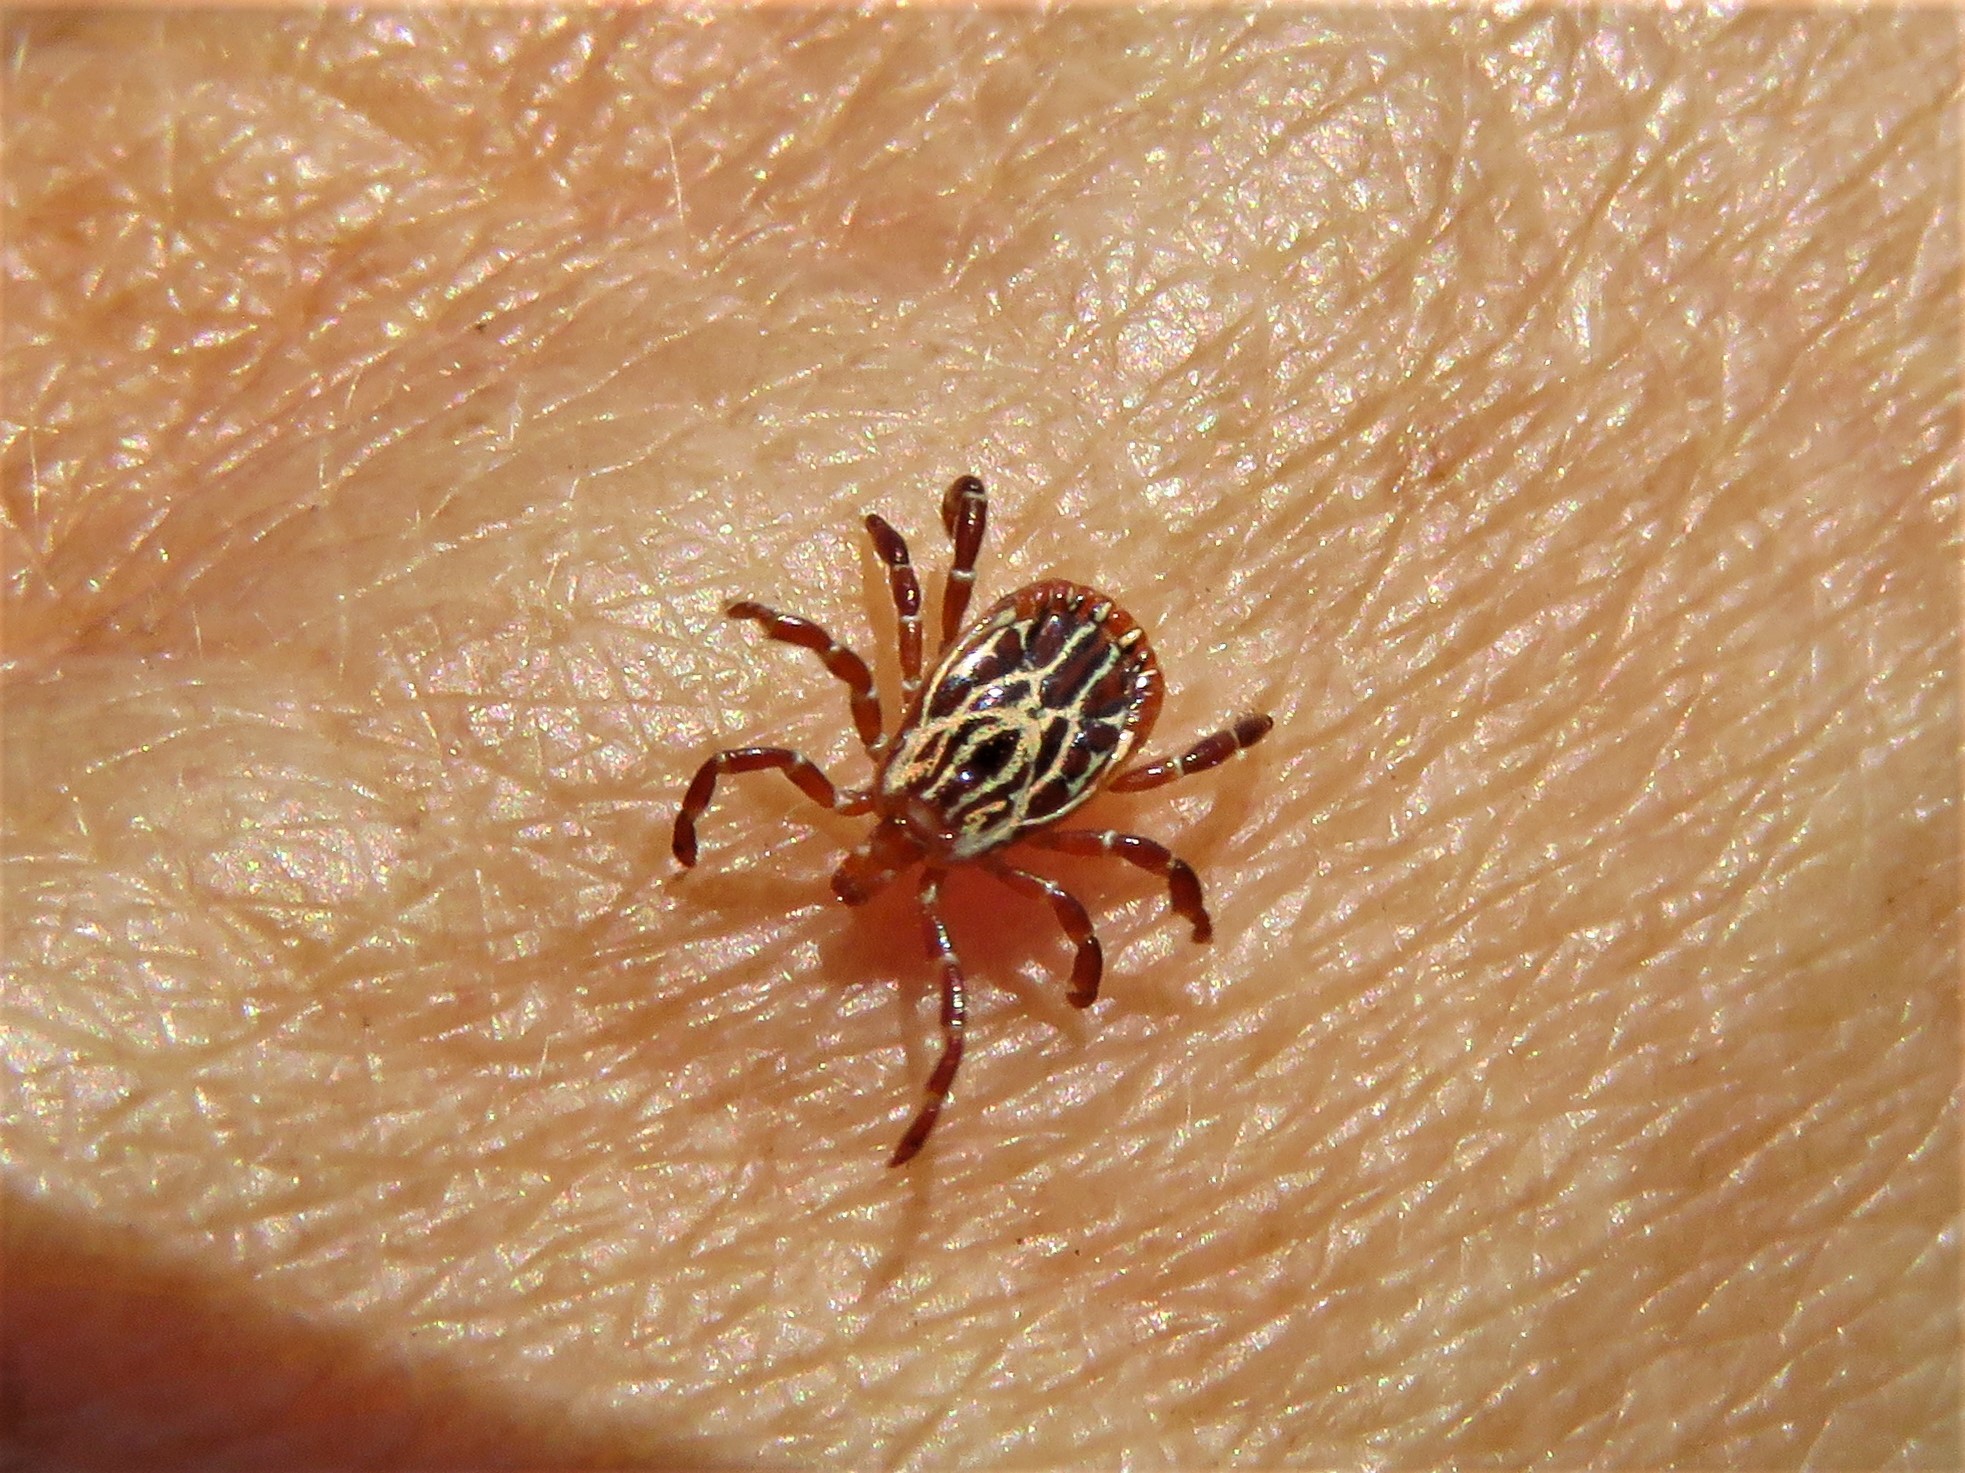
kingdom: Animalia
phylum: Arthropoda
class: Arachnida
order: Ixodida
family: Ixodidae
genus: Amblyomma
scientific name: Amblyomma maculatum
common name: Gulf coast tick
